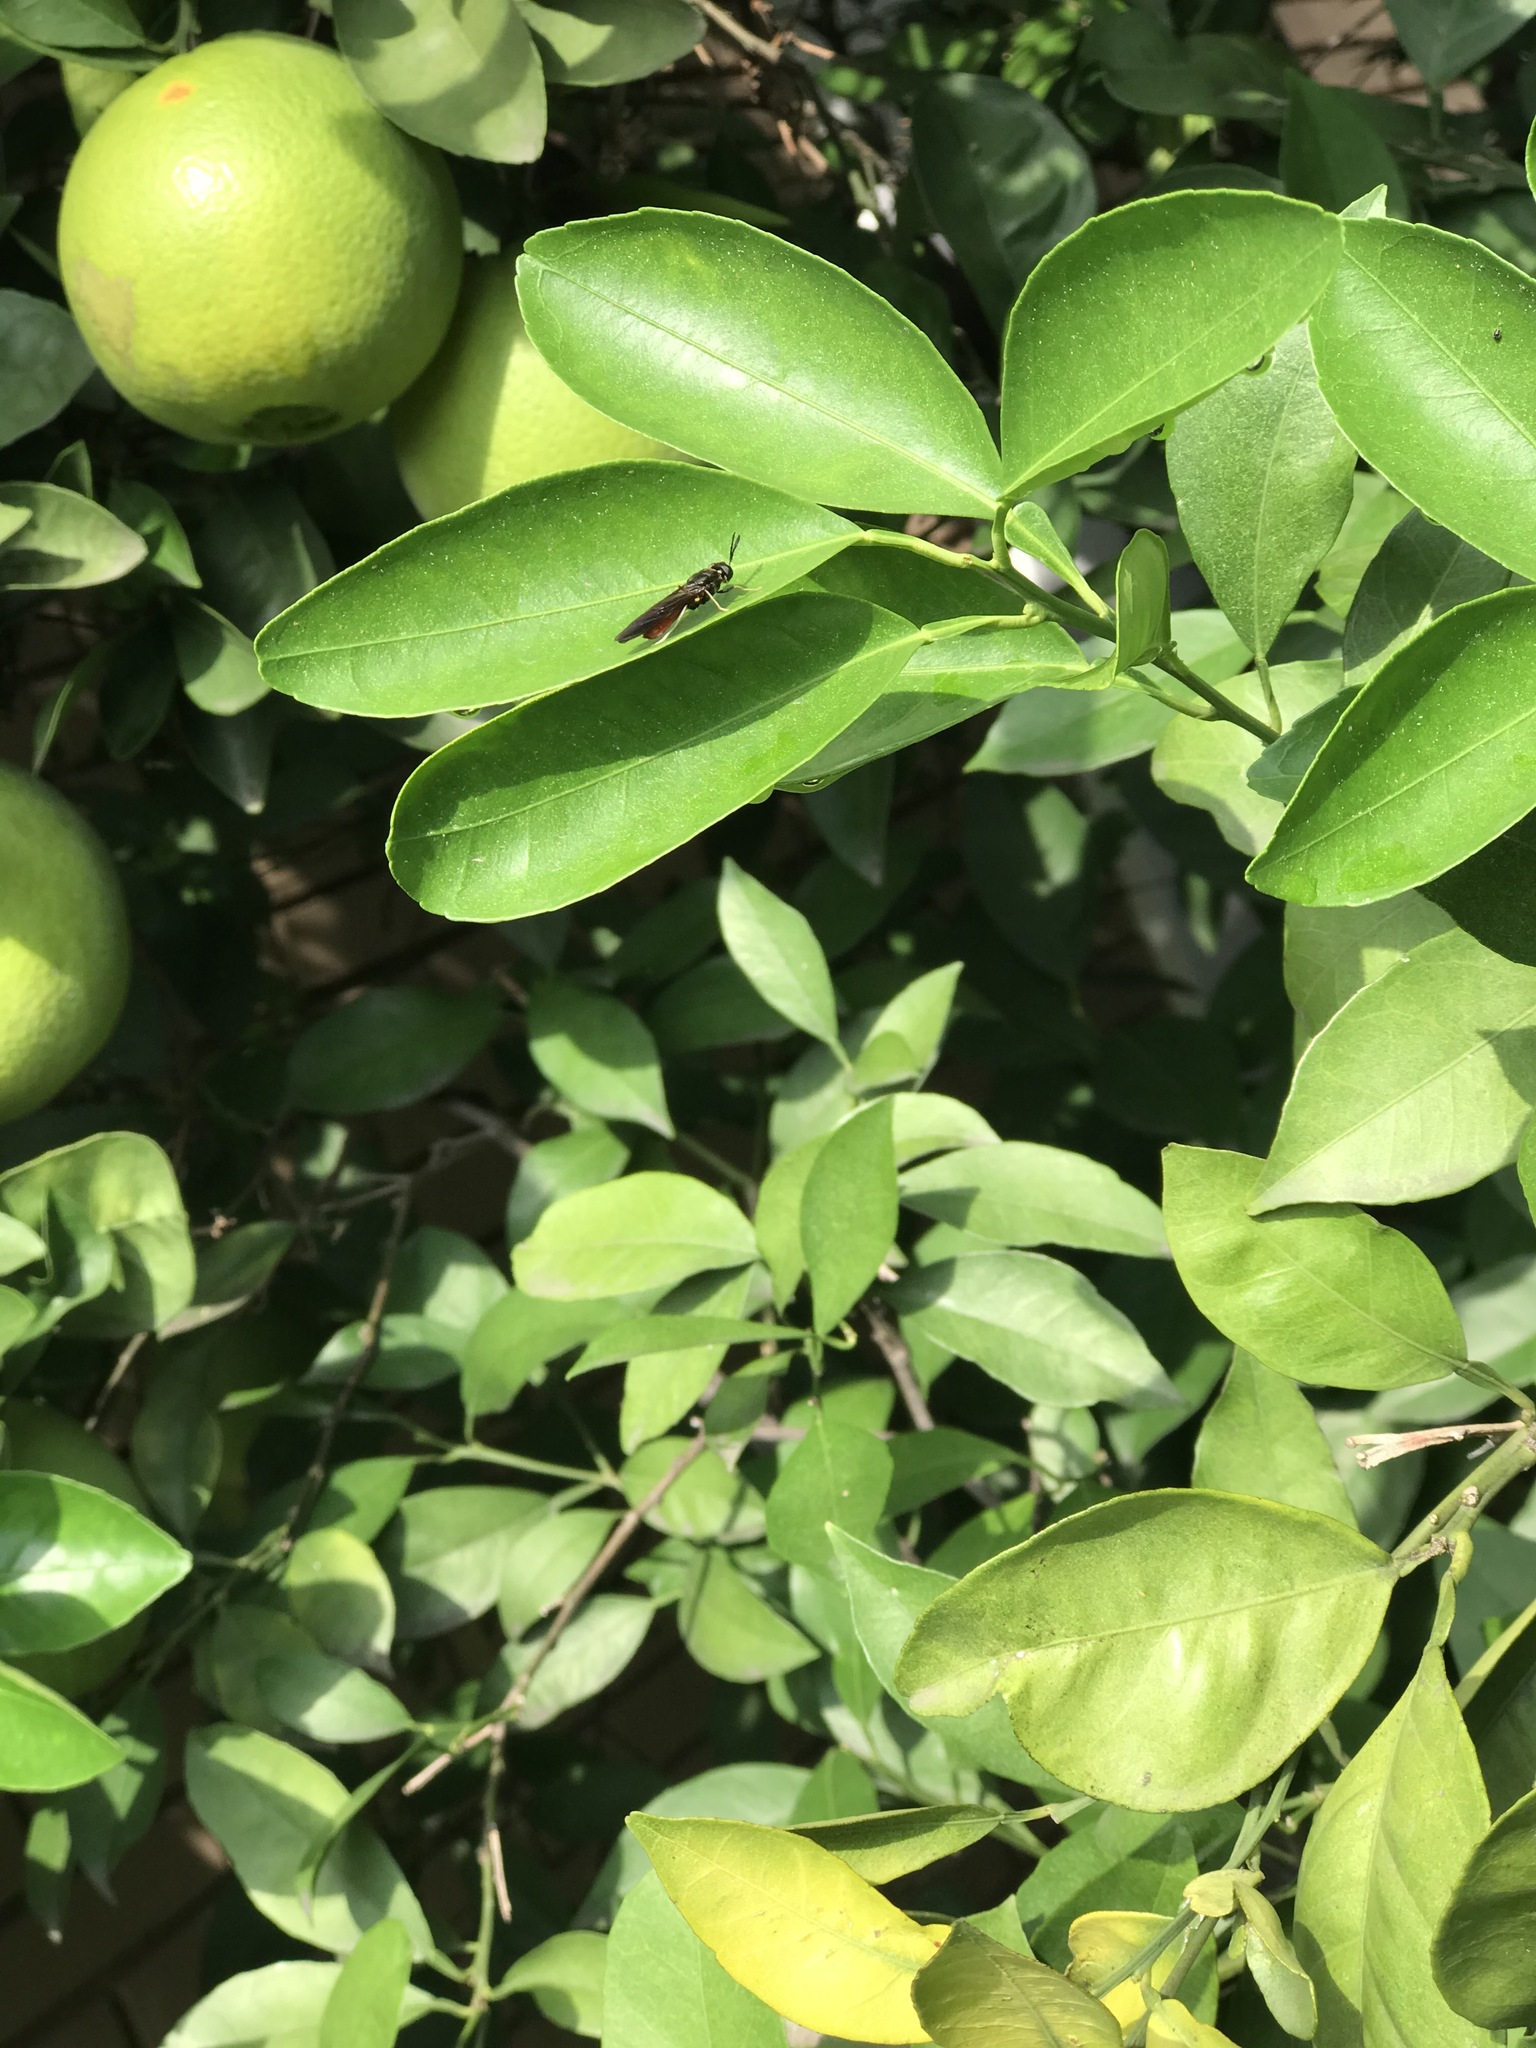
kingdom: Animalia
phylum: Arthropoda
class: Insecta
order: Diptera
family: Stratiomyidae
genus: Hermetia
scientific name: Hermetia relicta
